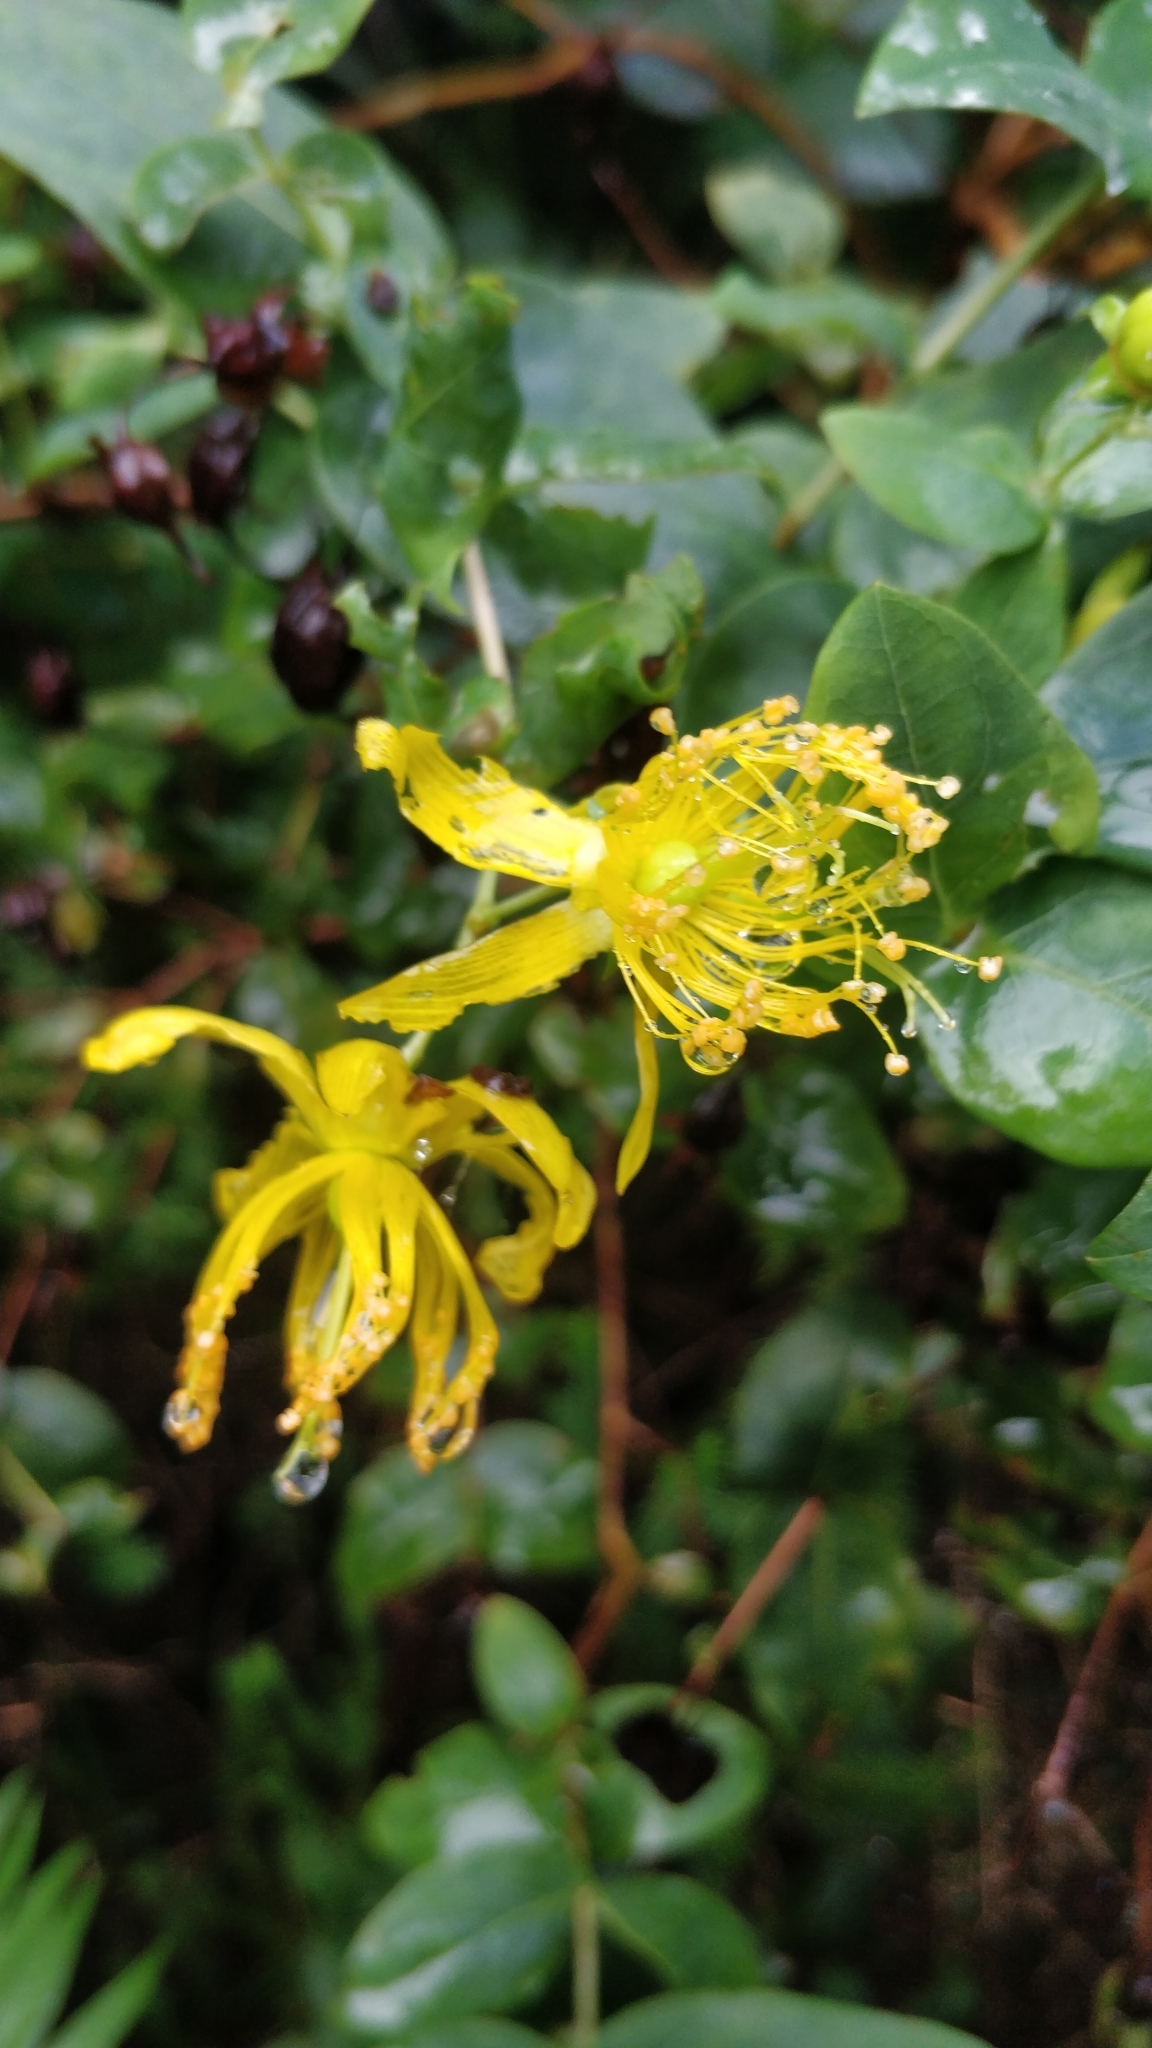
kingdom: Plantae
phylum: Tracheophyta
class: Magnoliopsida
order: Malpighiales
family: Hypericaceae
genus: Hypericum
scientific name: Hypericum grandifolium
